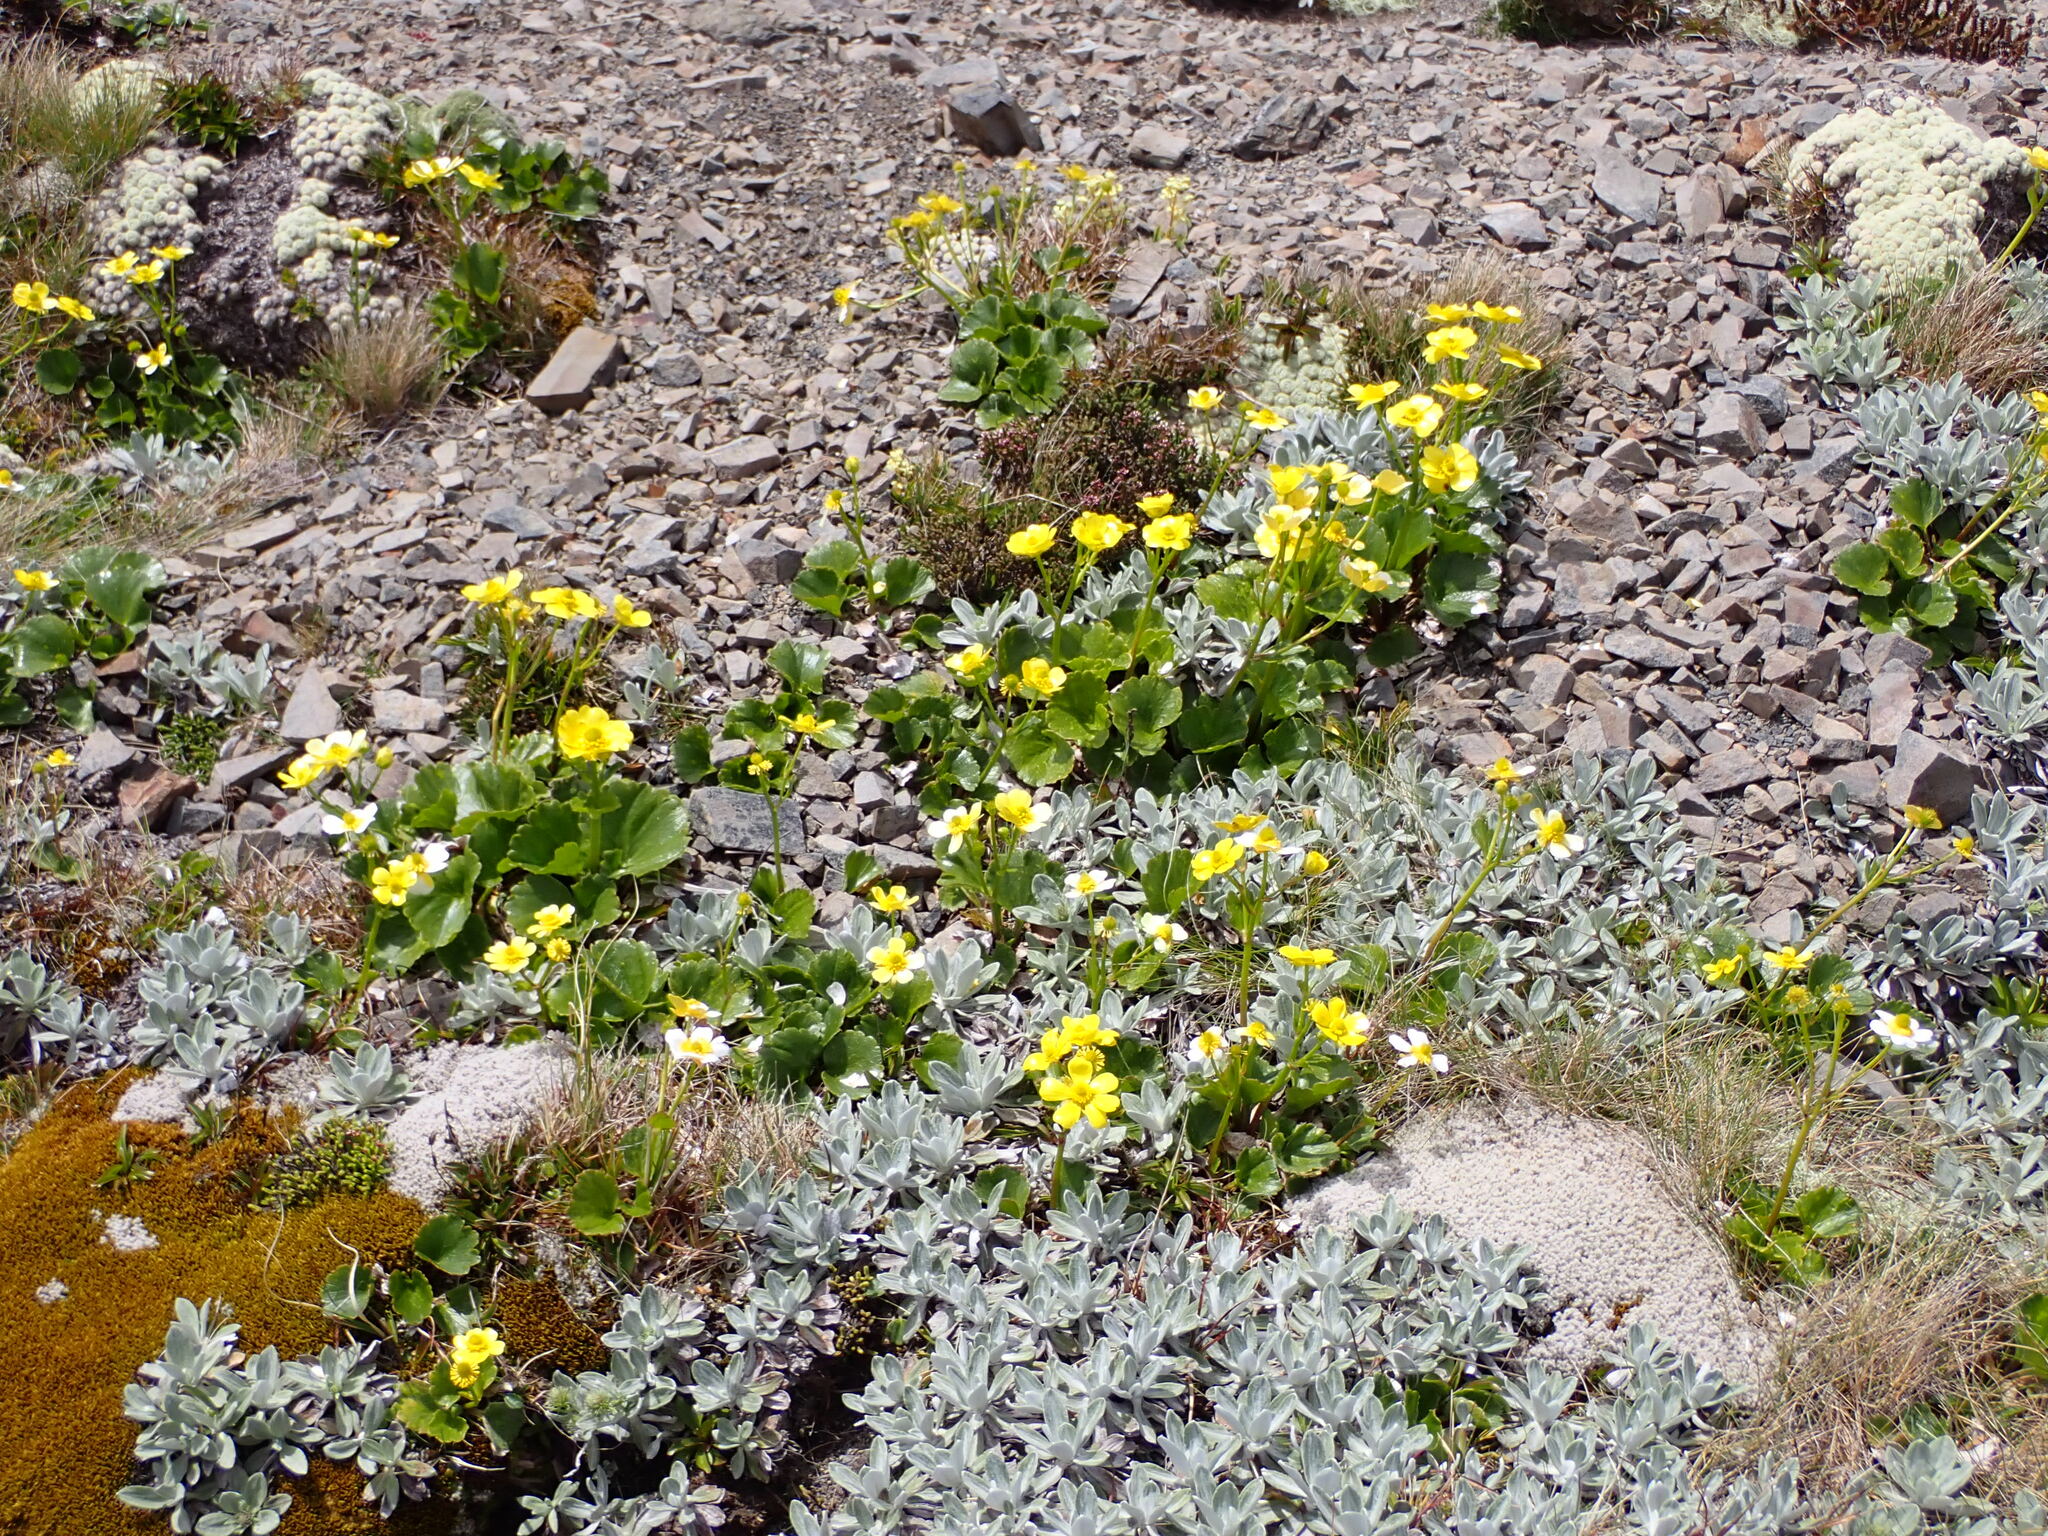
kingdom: Plantae
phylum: Tracheophyta
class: Magnoliopsida
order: Ranunculales
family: Ranunculaceae
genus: Ranunculus
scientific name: Ranunculus insignis
